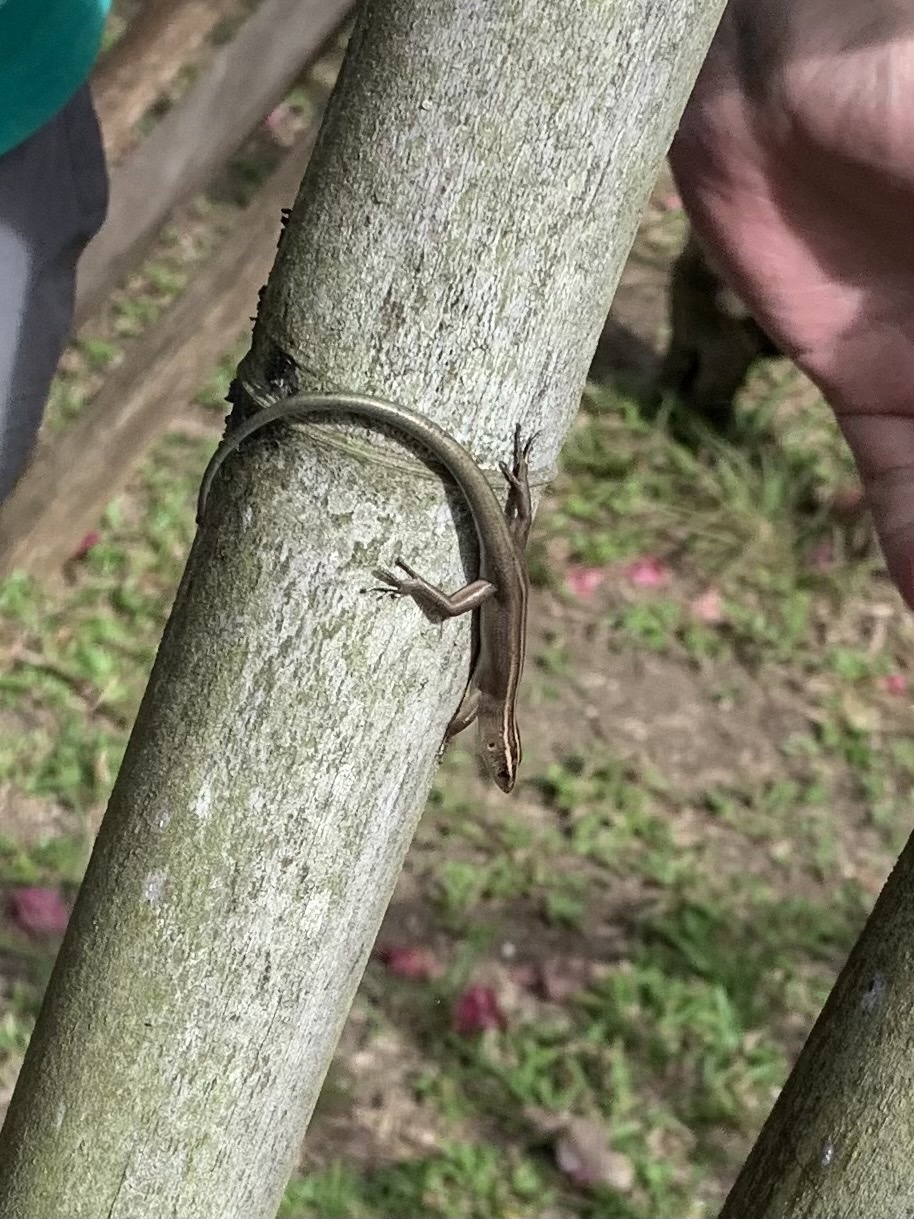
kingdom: Animalia
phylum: Chordata
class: Squamata
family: Scincidae
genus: Emoia
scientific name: Emoia cyanura
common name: Copper-tailed skink
